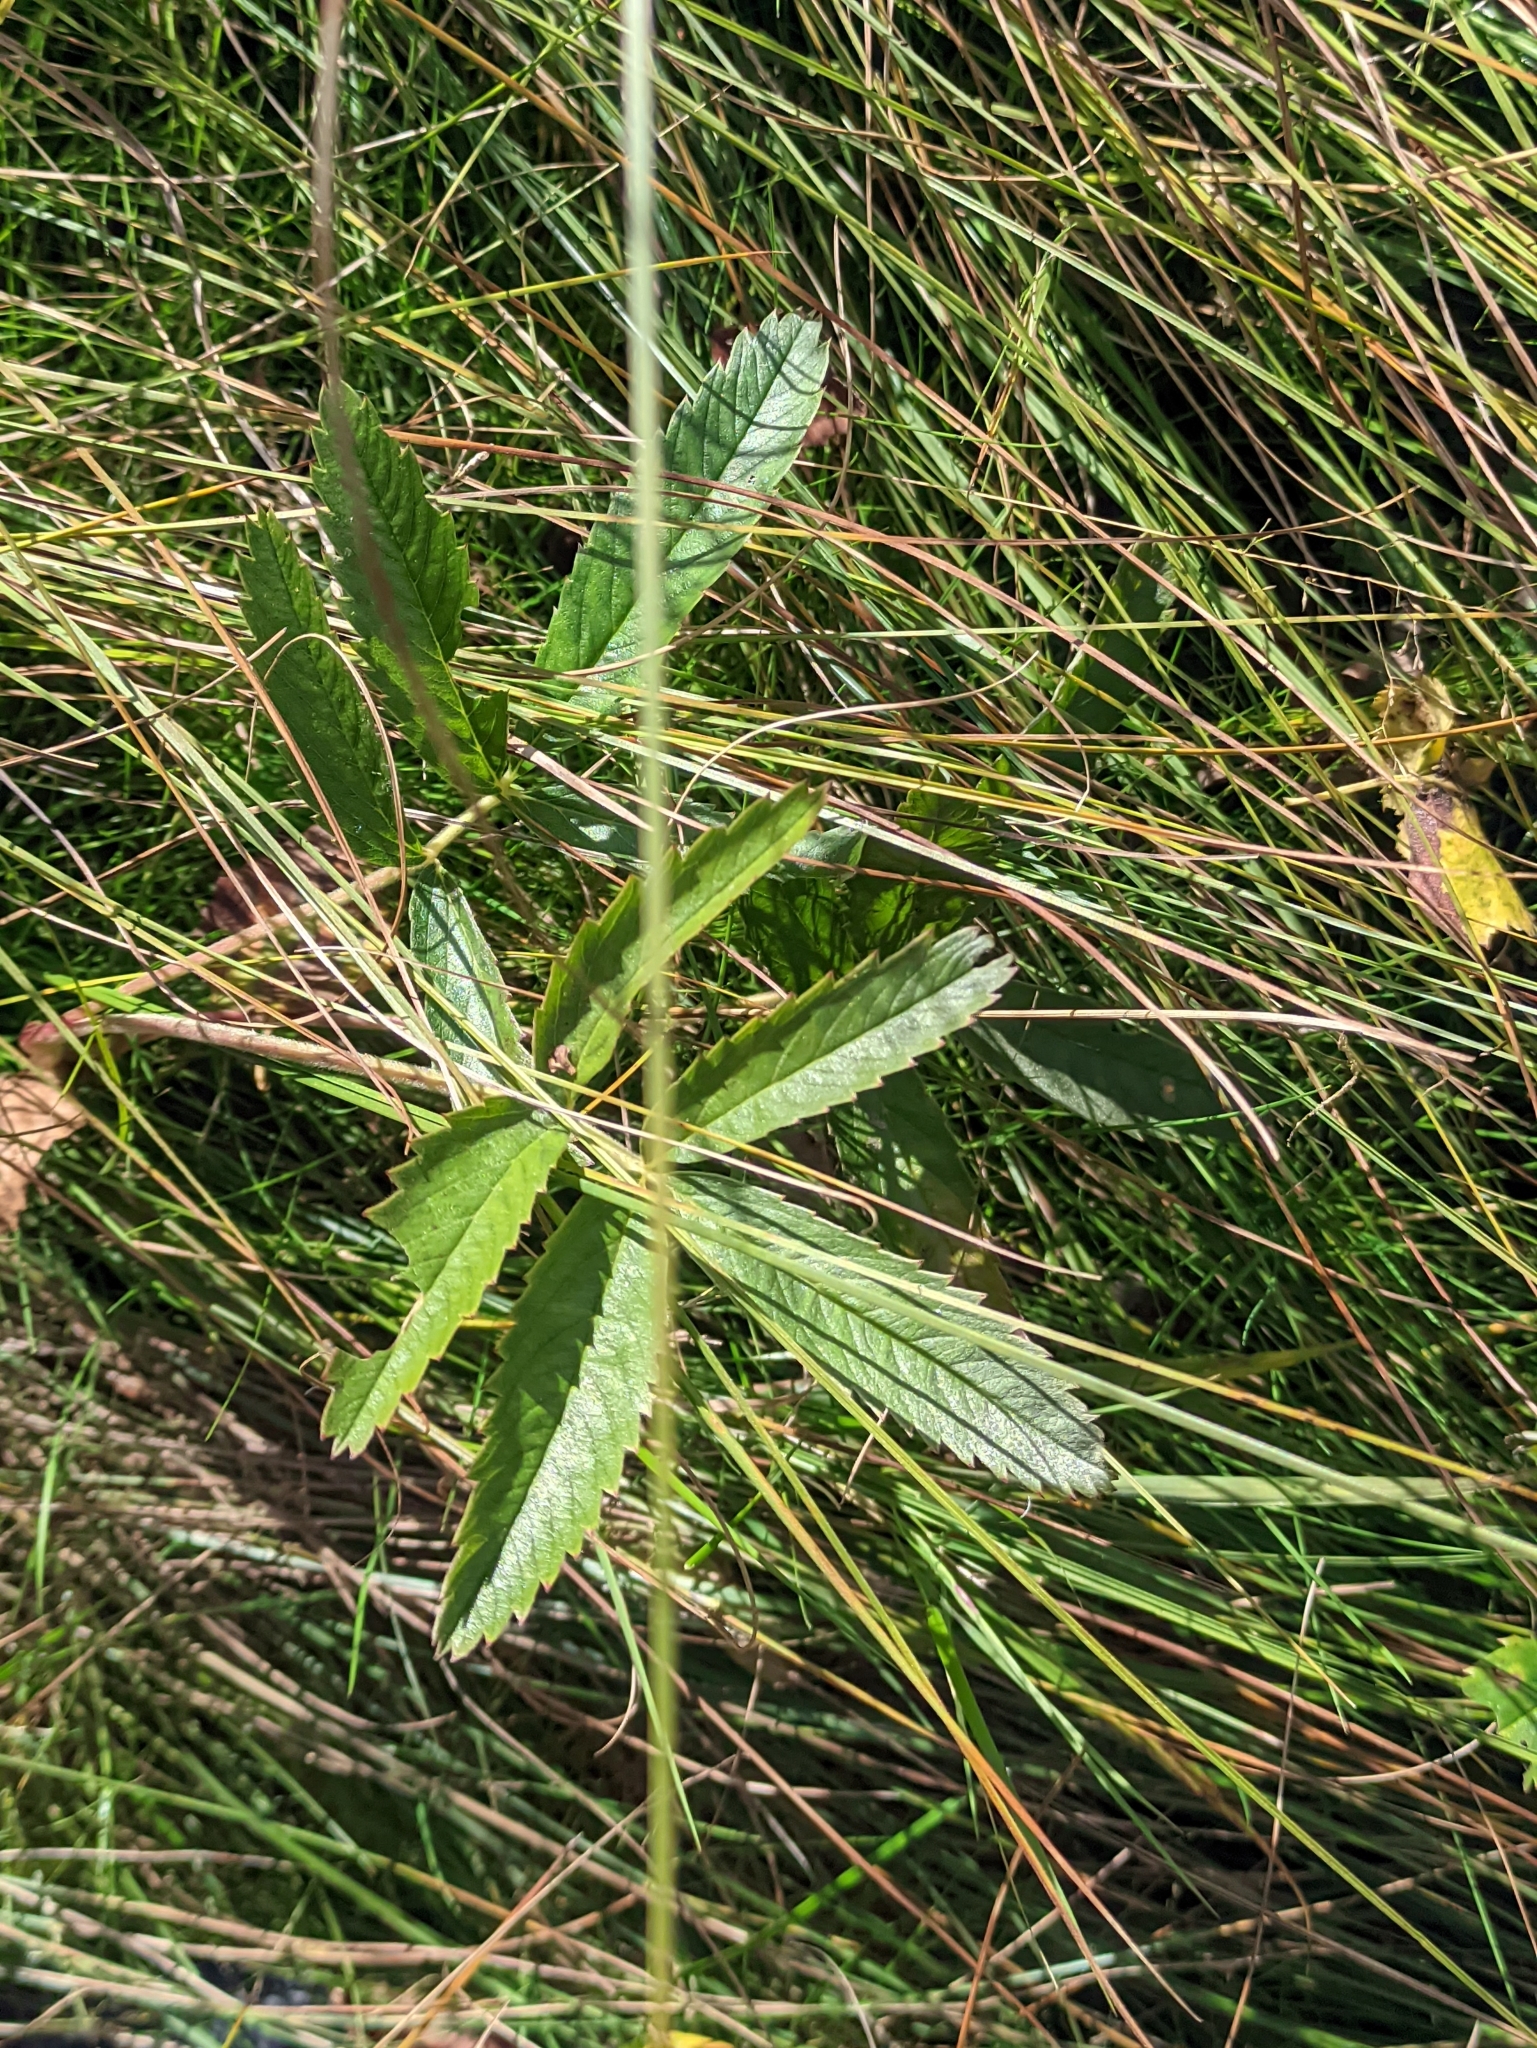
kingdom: Plantae
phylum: Tracheophyta
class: Magnoliopsida
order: Rosales
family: Rosaceae
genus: Comarum
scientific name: Comarum palustre
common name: Marsh cinquefoil
